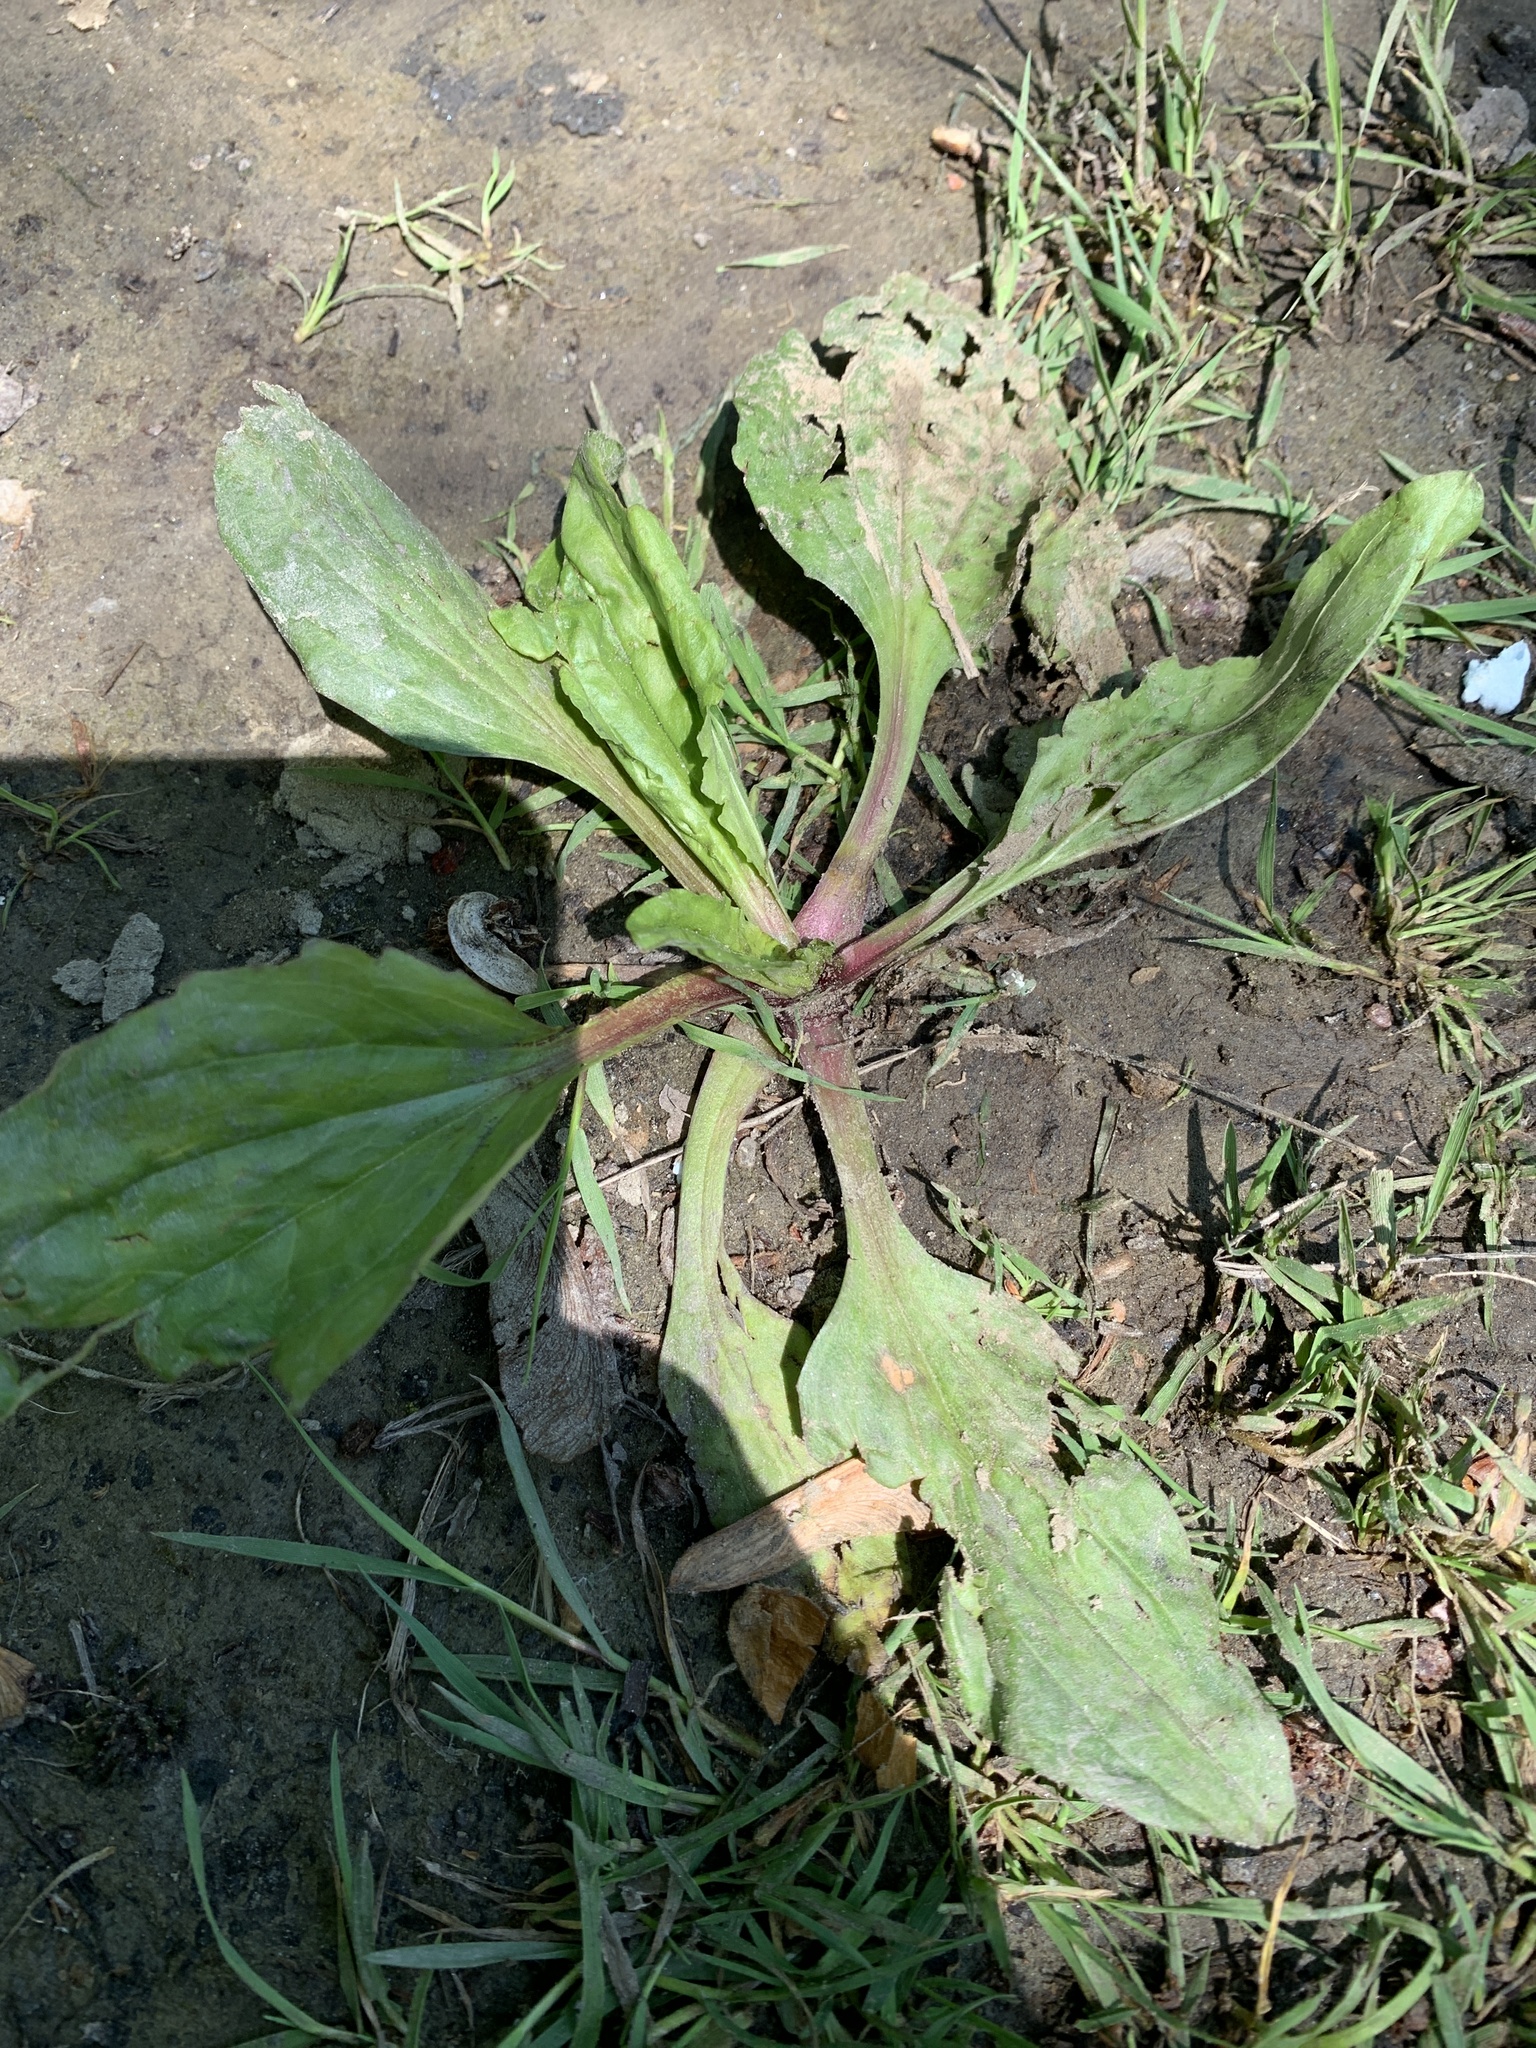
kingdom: Plantae
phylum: Tracheophyta
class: Magnoliopsida
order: Lamiales
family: Plantaginaceae
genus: Plantago
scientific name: Plantago rugelii
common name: American plantain
